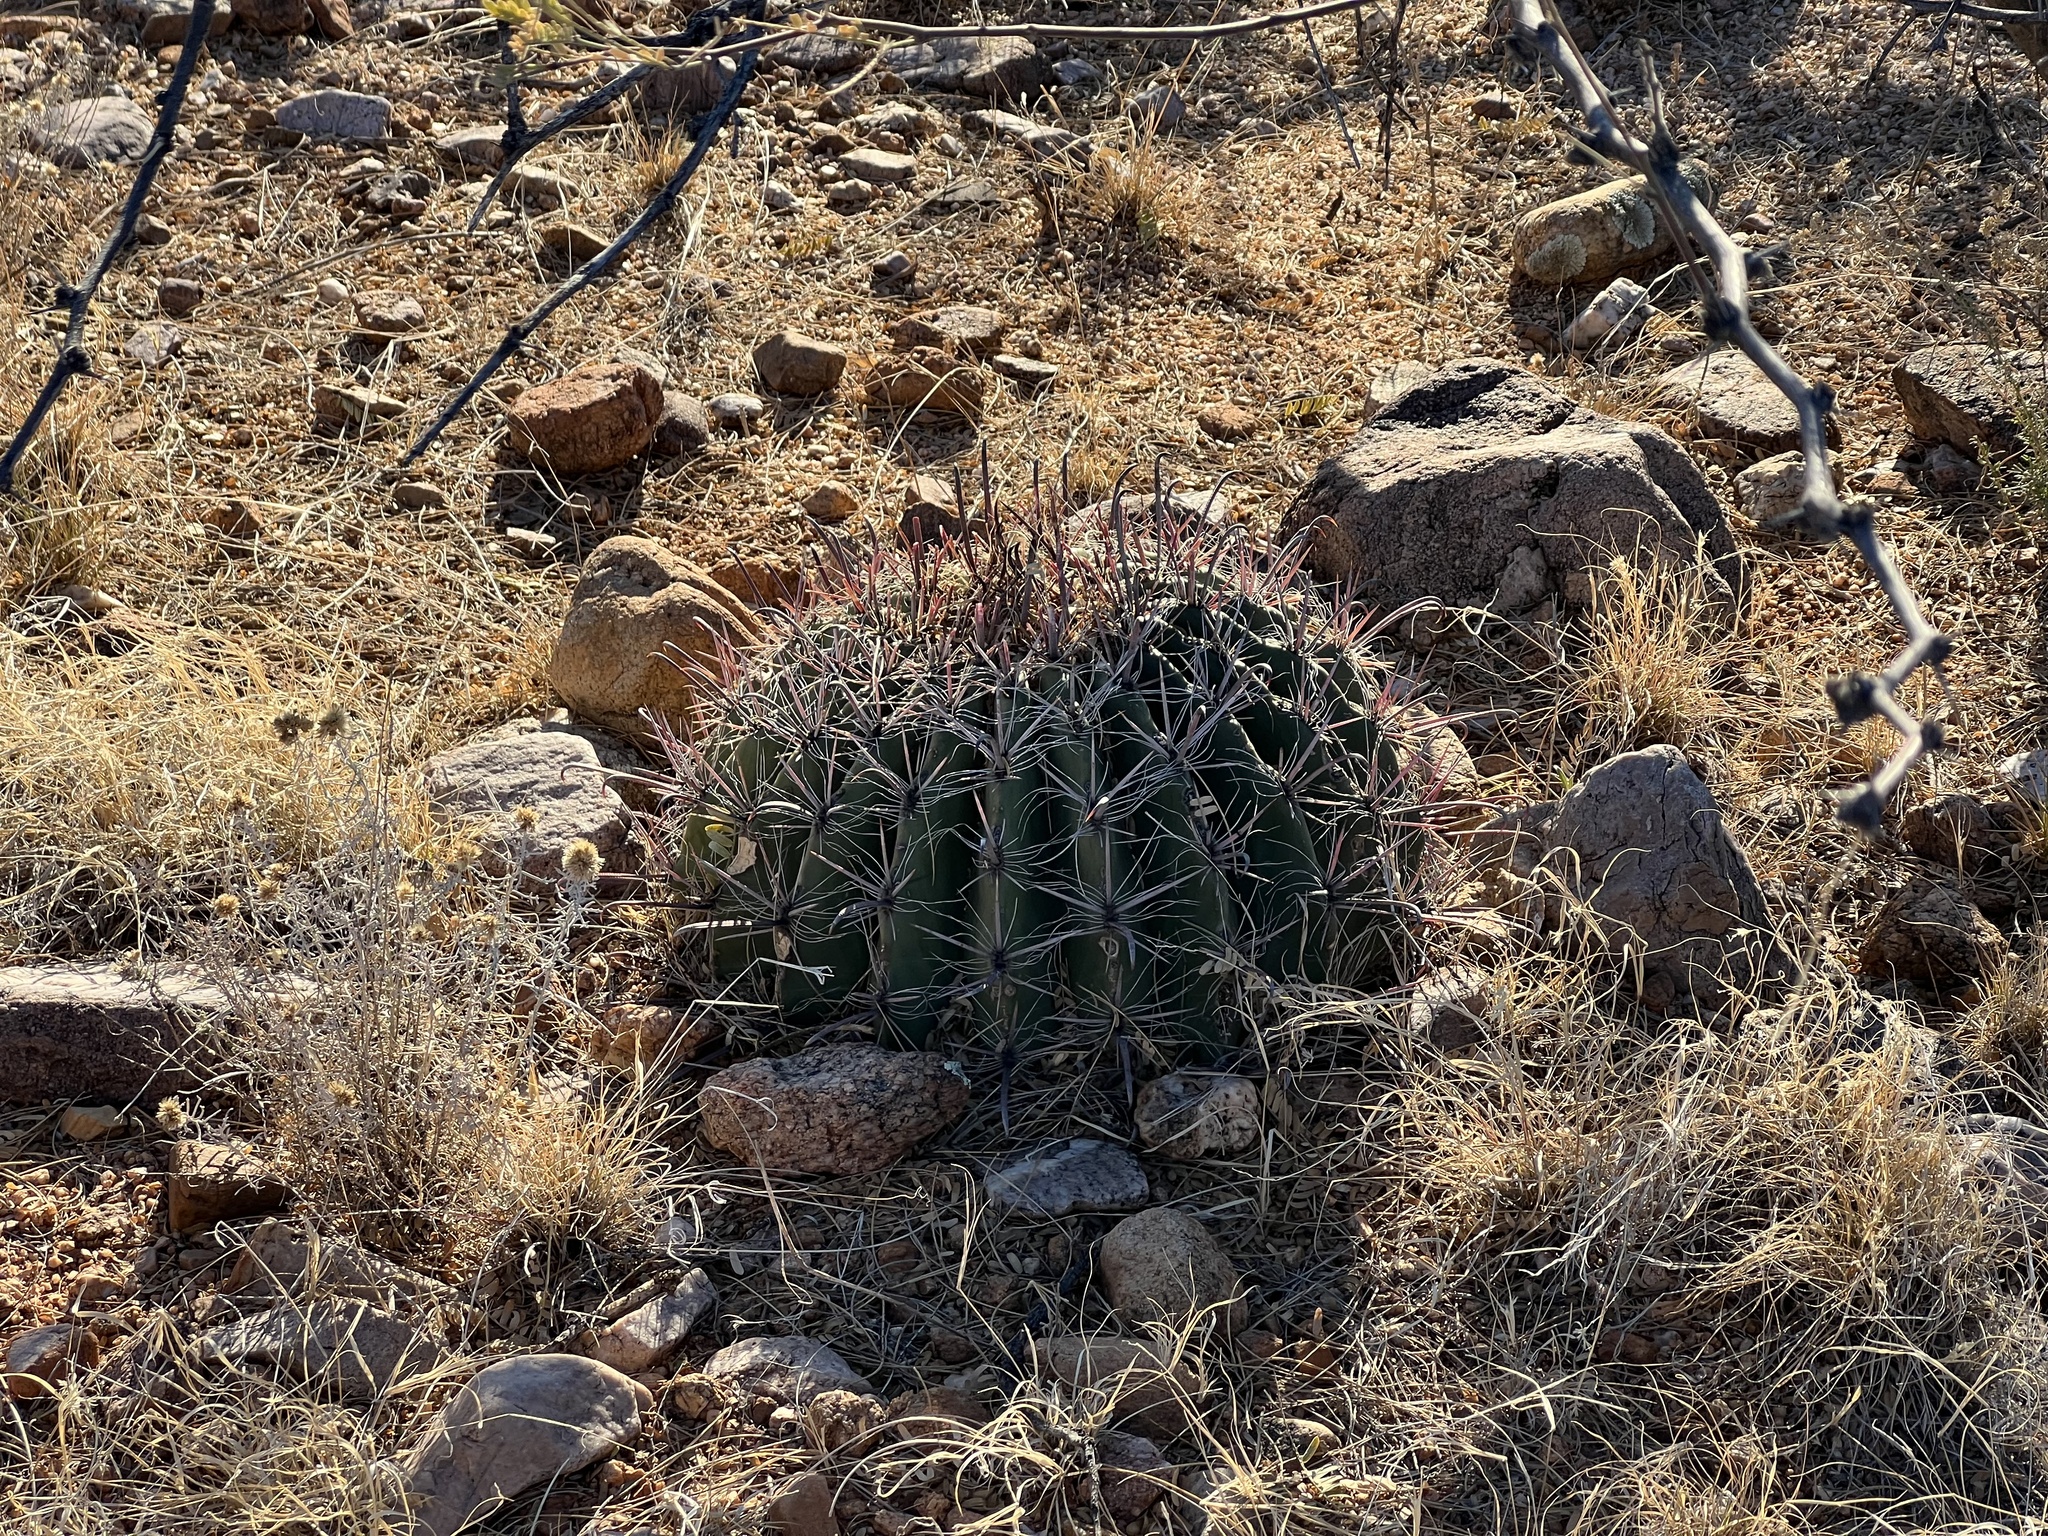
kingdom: Plantae
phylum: Tracheophyta
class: Magnoliopsida
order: Caryophyllales
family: Cactaceae
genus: Ferocactus
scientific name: Ferocactus wislizeni
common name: Candy barrel cactus
